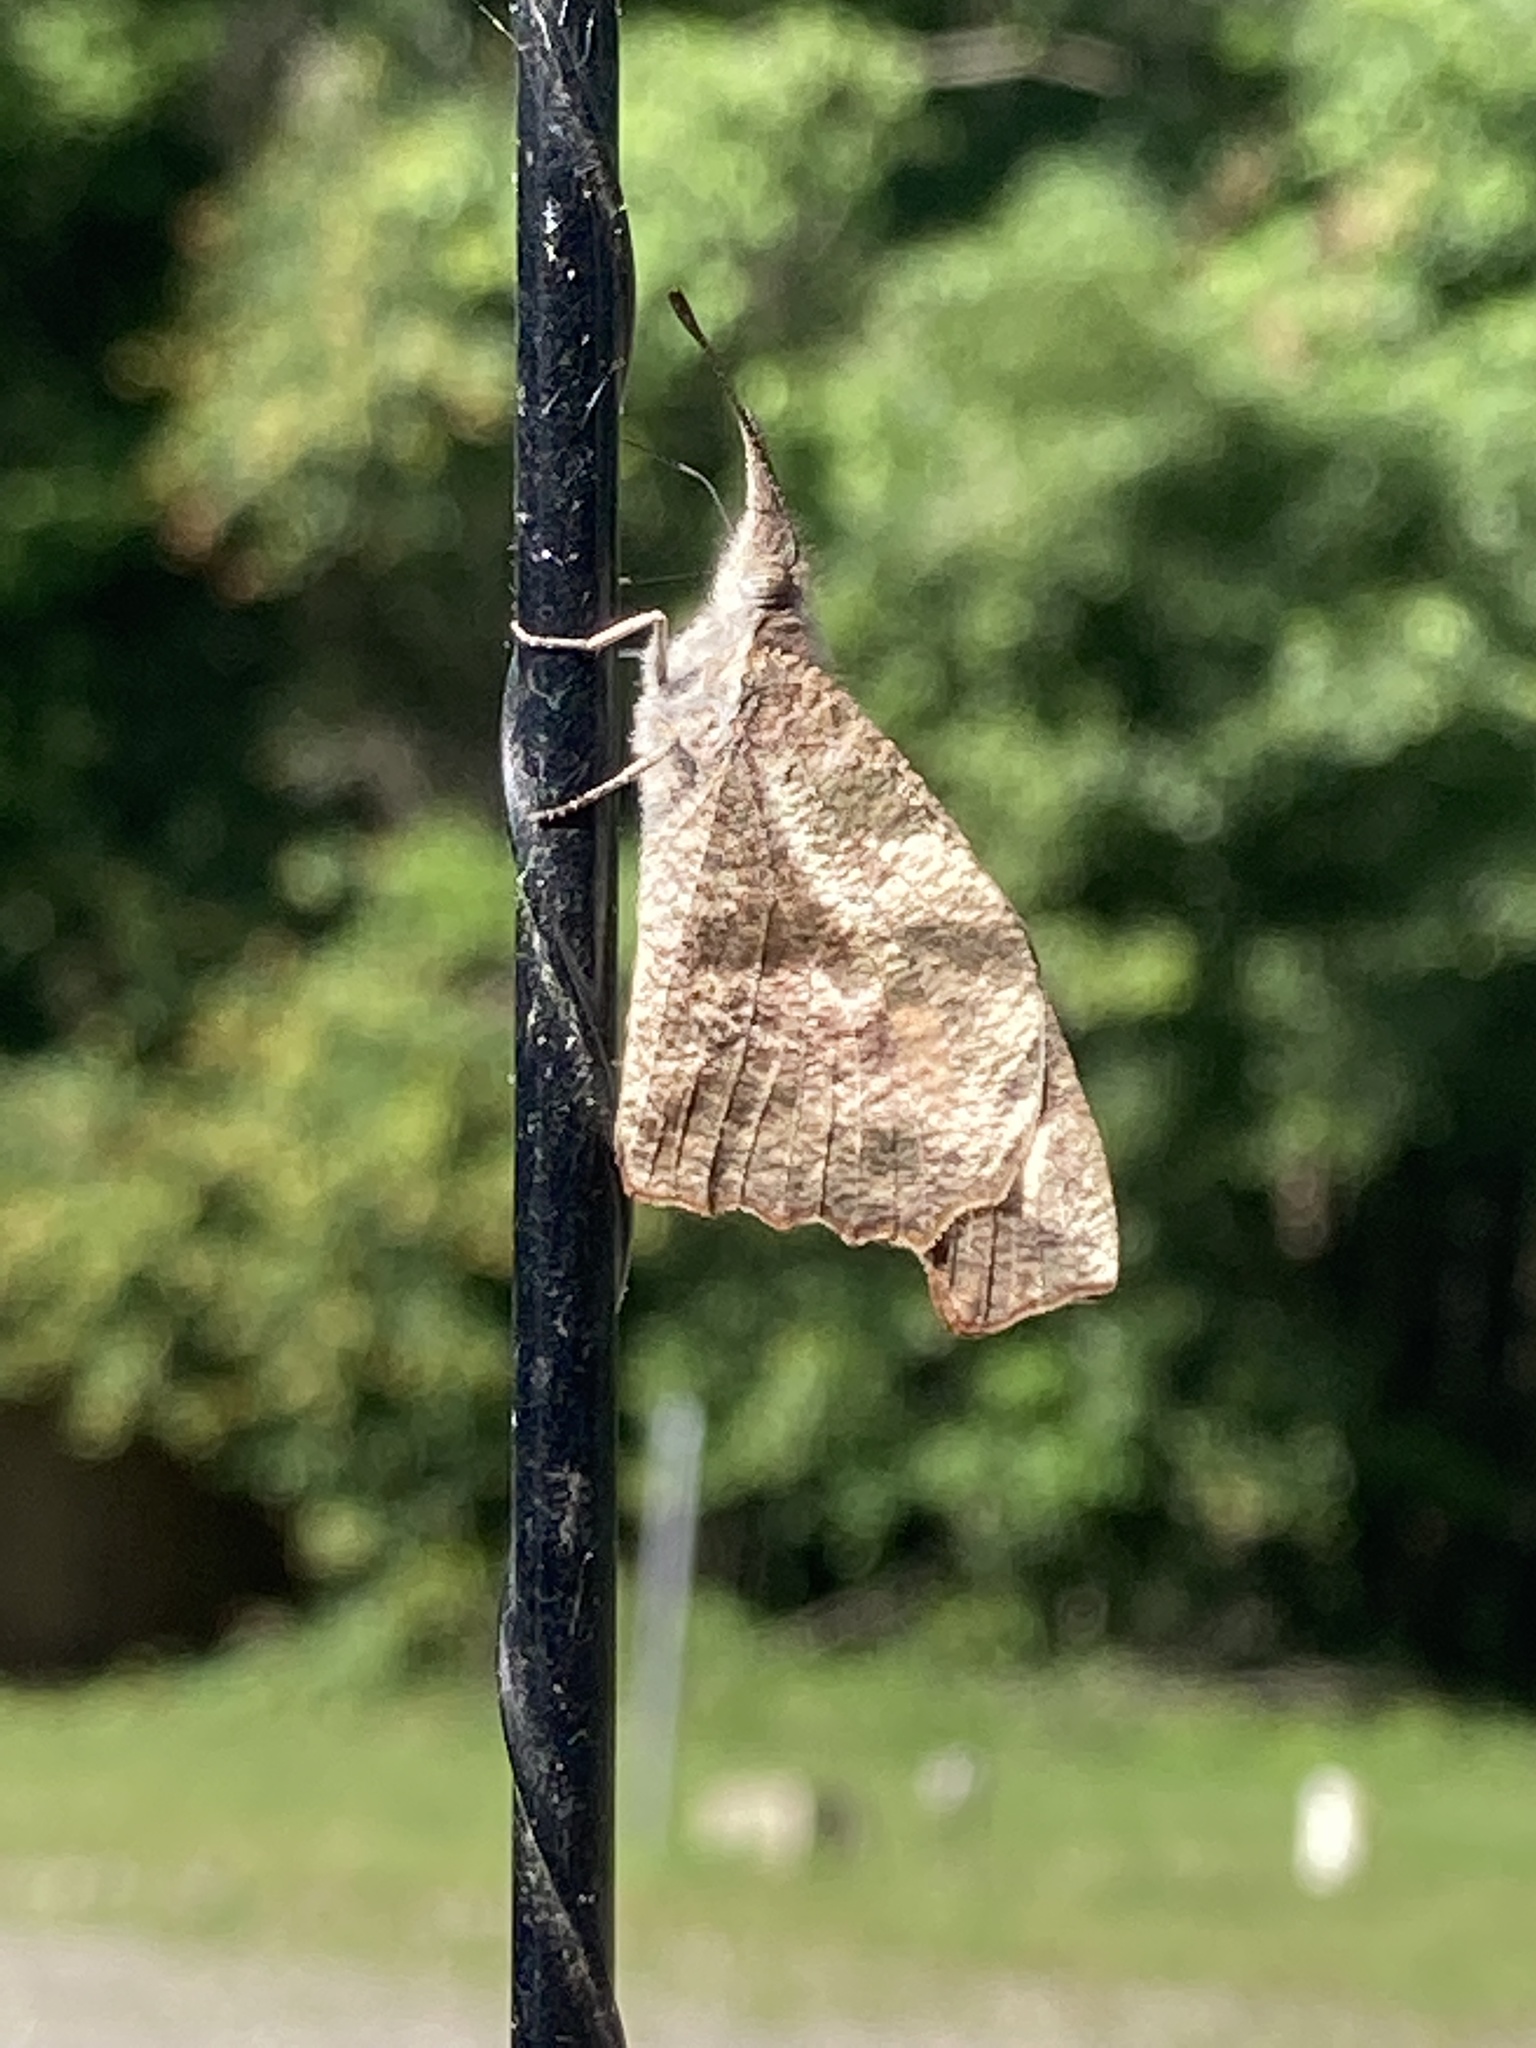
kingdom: Animalia
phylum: Arthropoda
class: Insecta
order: Lepidoptera
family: Nymphalidae
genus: Libytheana
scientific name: Libytheana carinenta
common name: American snout
